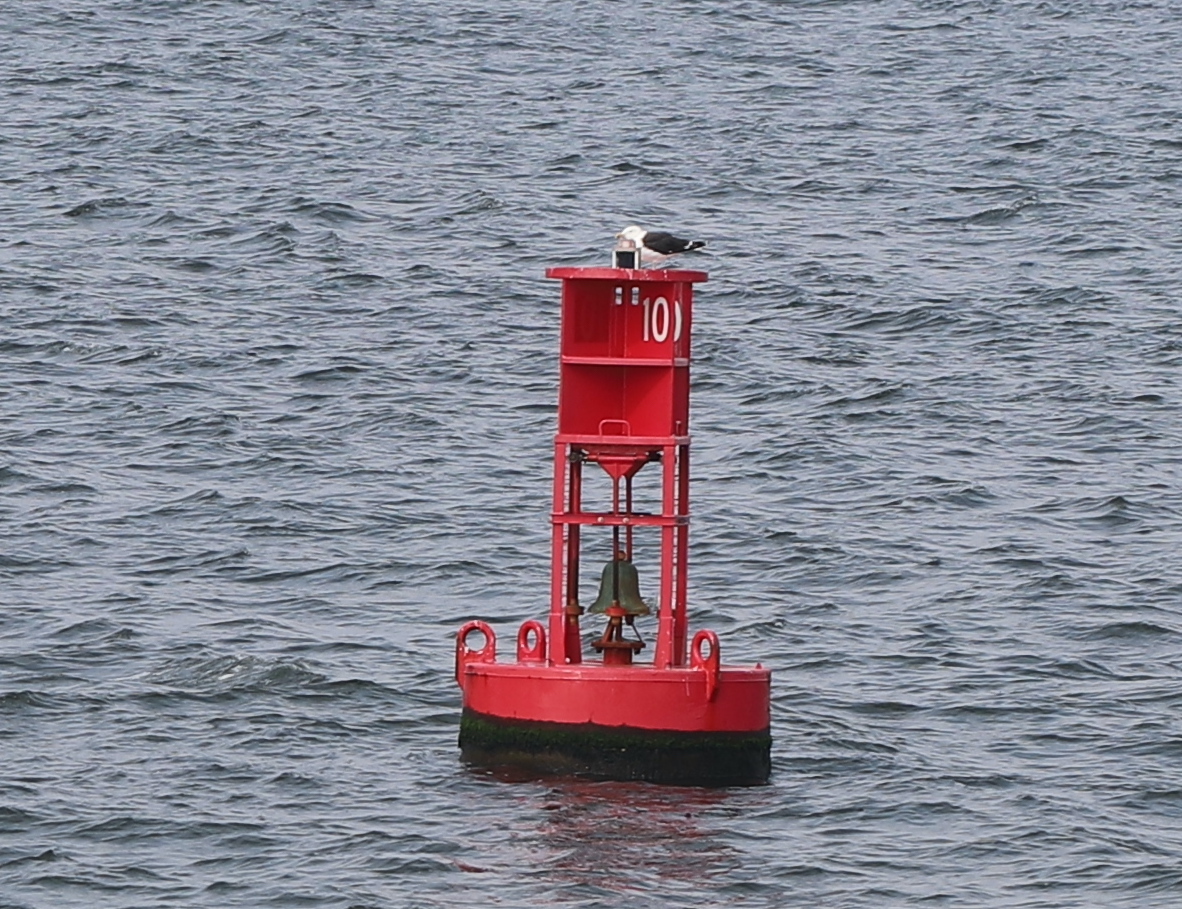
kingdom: Animalia
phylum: Chordata
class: Aves
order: Charadriiformes
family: Laridae
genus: Larus
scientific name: Larus marinus
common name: Great black-backed gull
